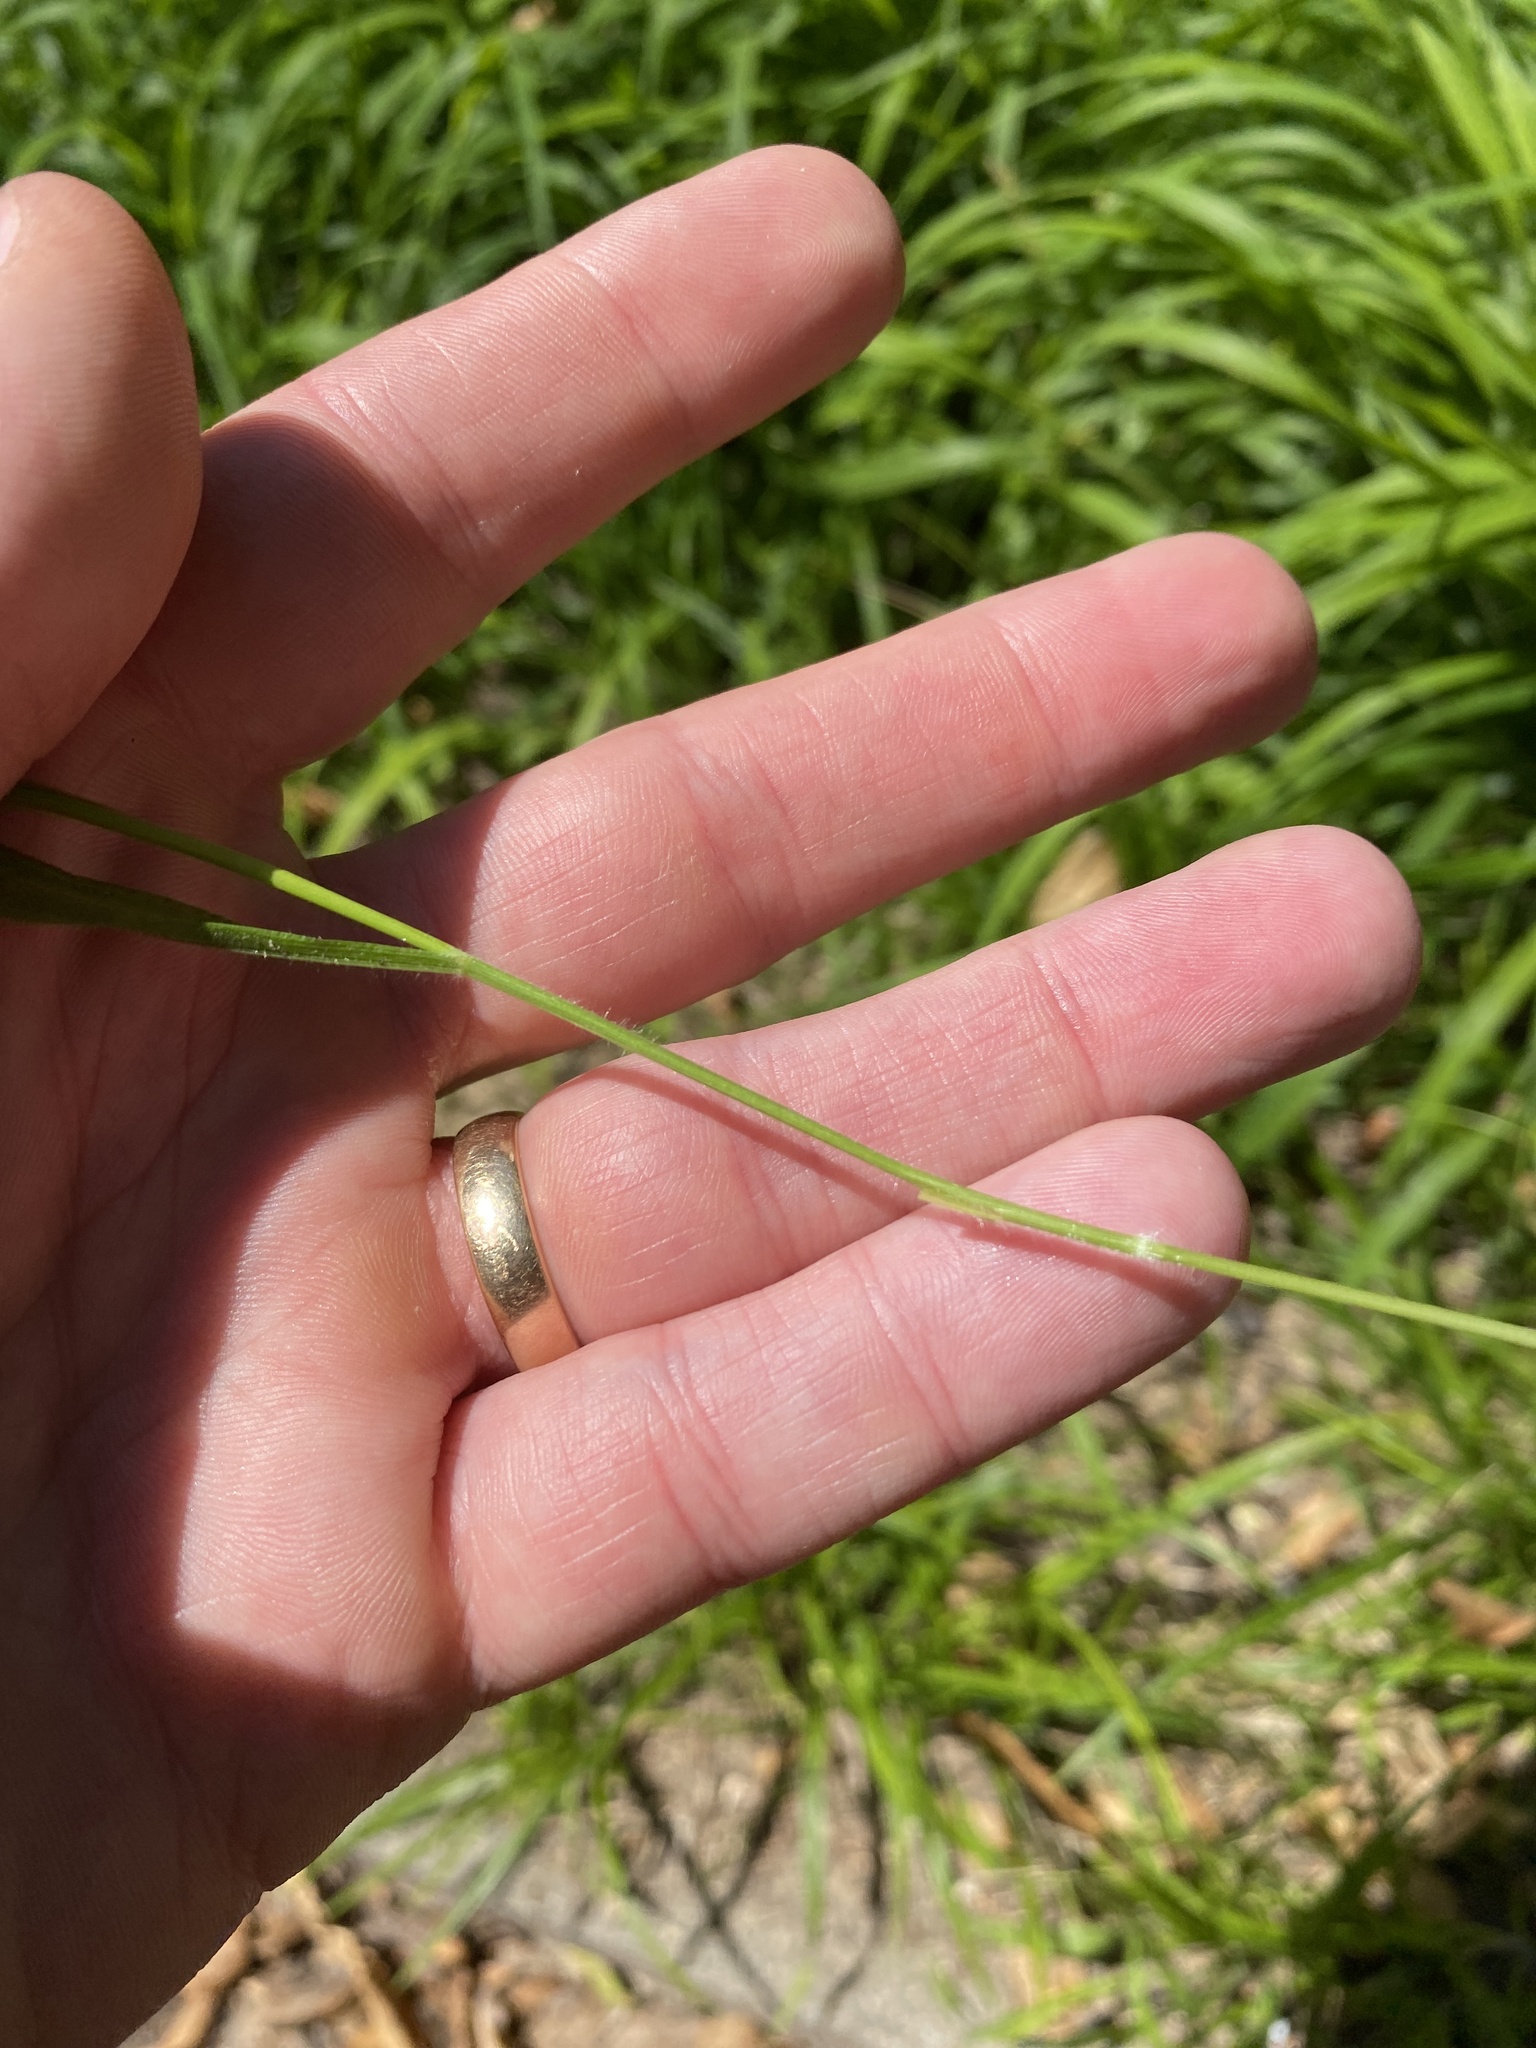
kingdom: Plantae
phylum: Tracheophyta
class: Liliopsida
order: Poales
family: Poaceae
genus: Brachypodium
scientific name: Brachypodium sylvaticum
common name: False-brome
